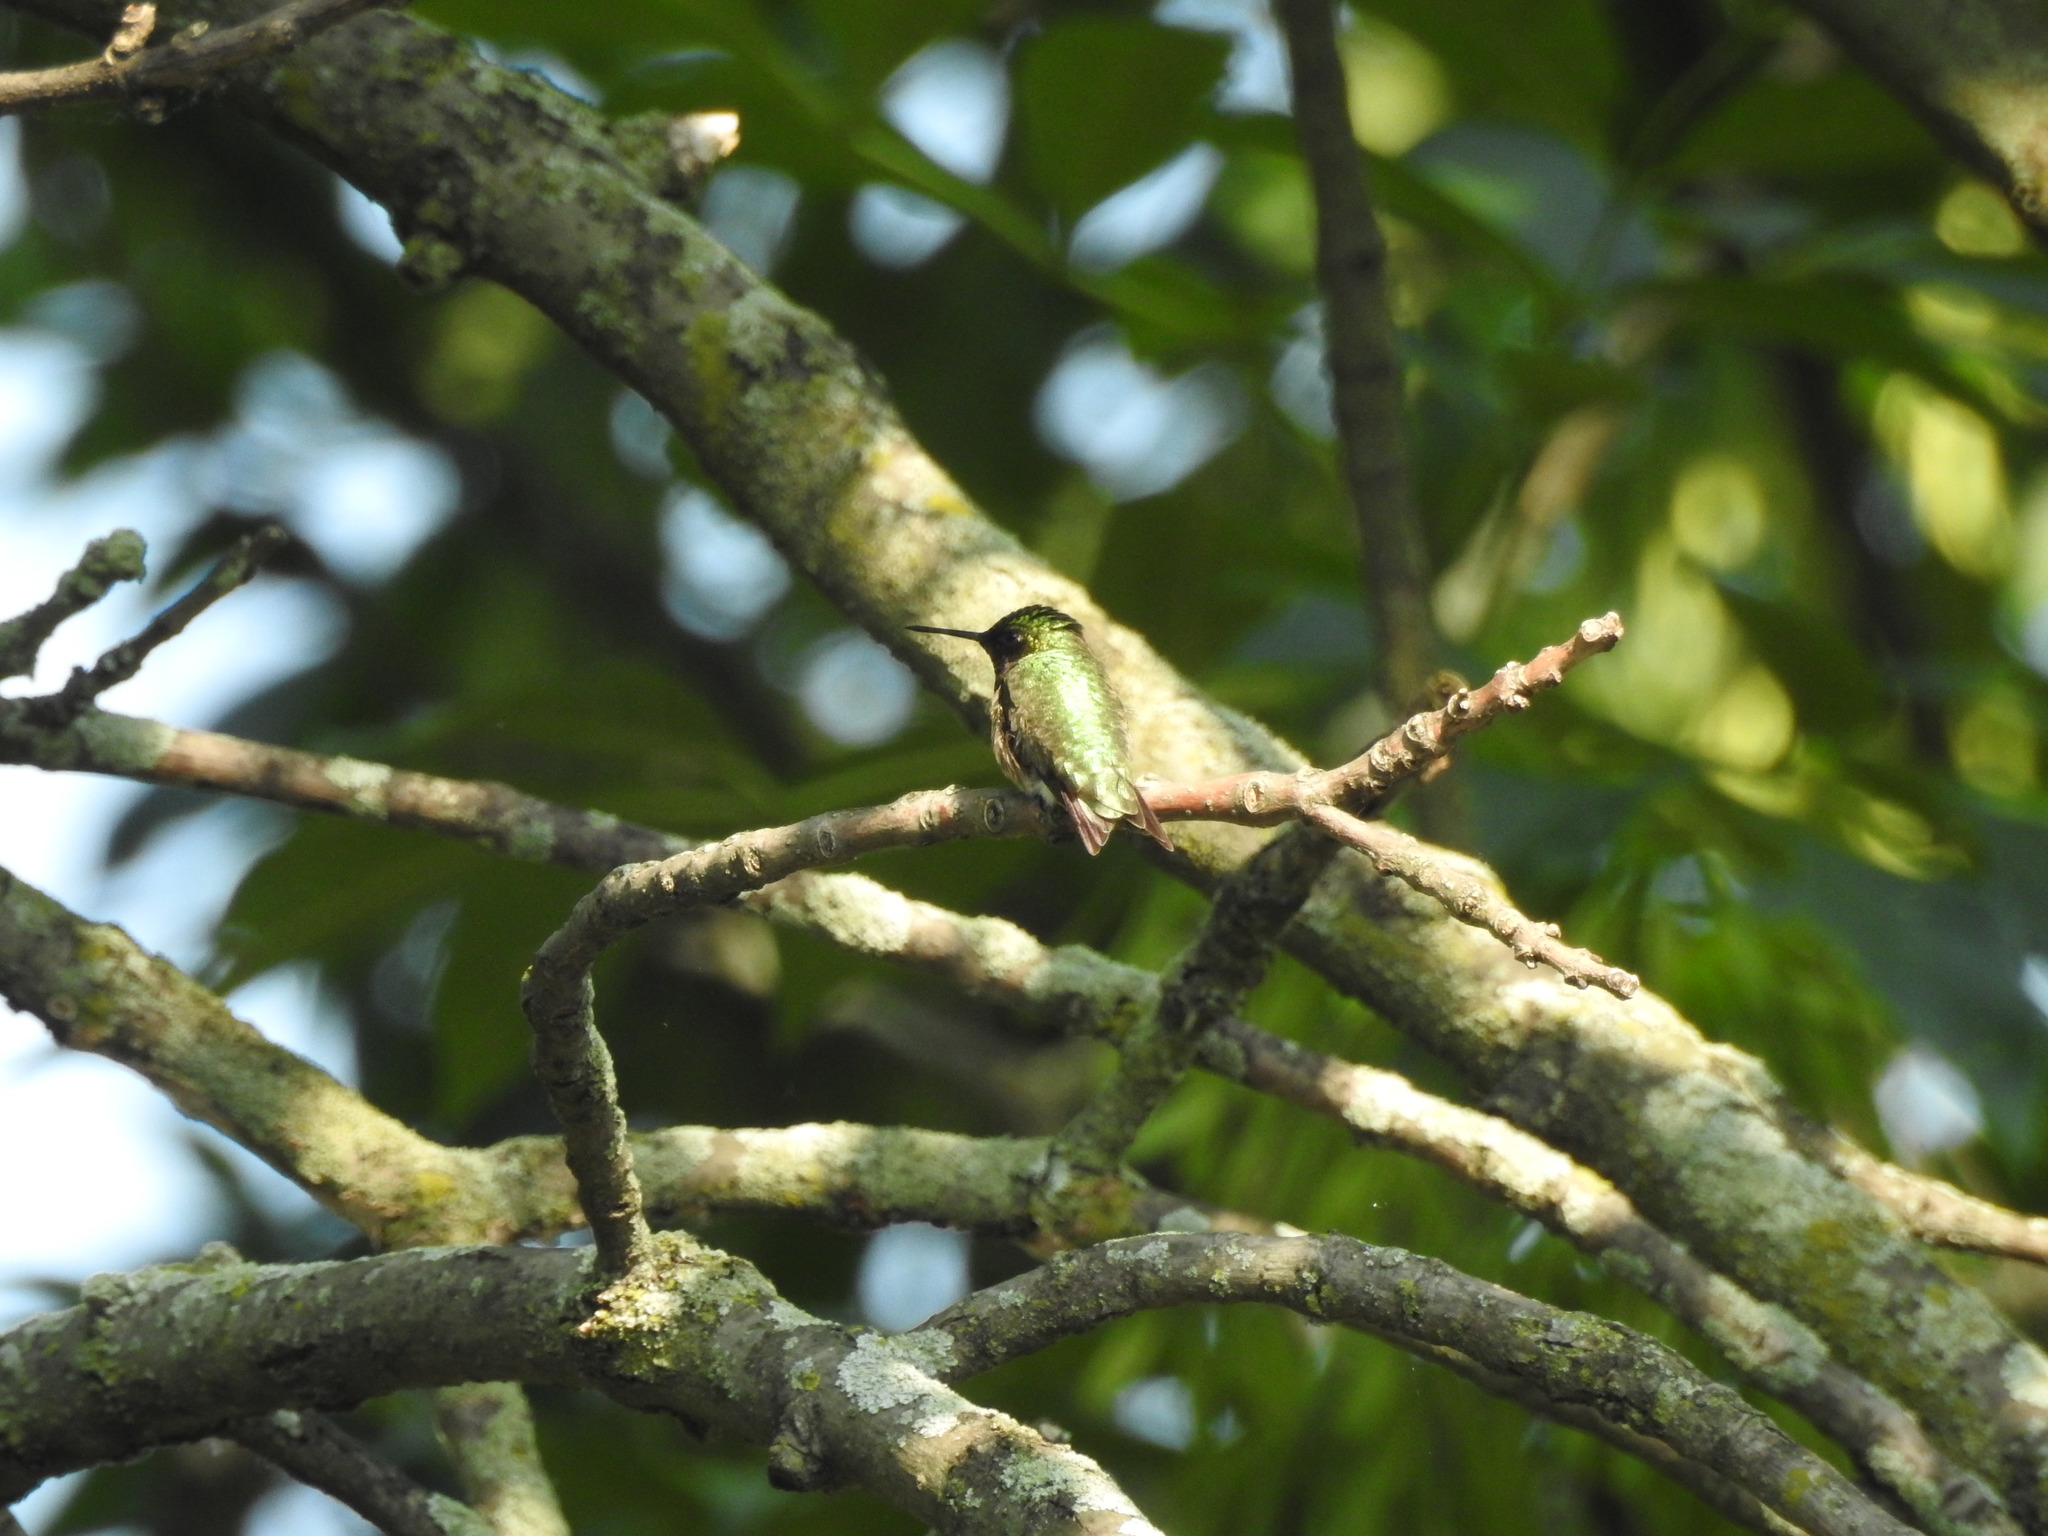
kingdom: Animalia
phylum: Chordata
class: Aves
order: Apodiformes
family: Trochilidae
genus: Archilochus
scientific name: Archilochus colubris
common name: Ruby-throated hummingbird
